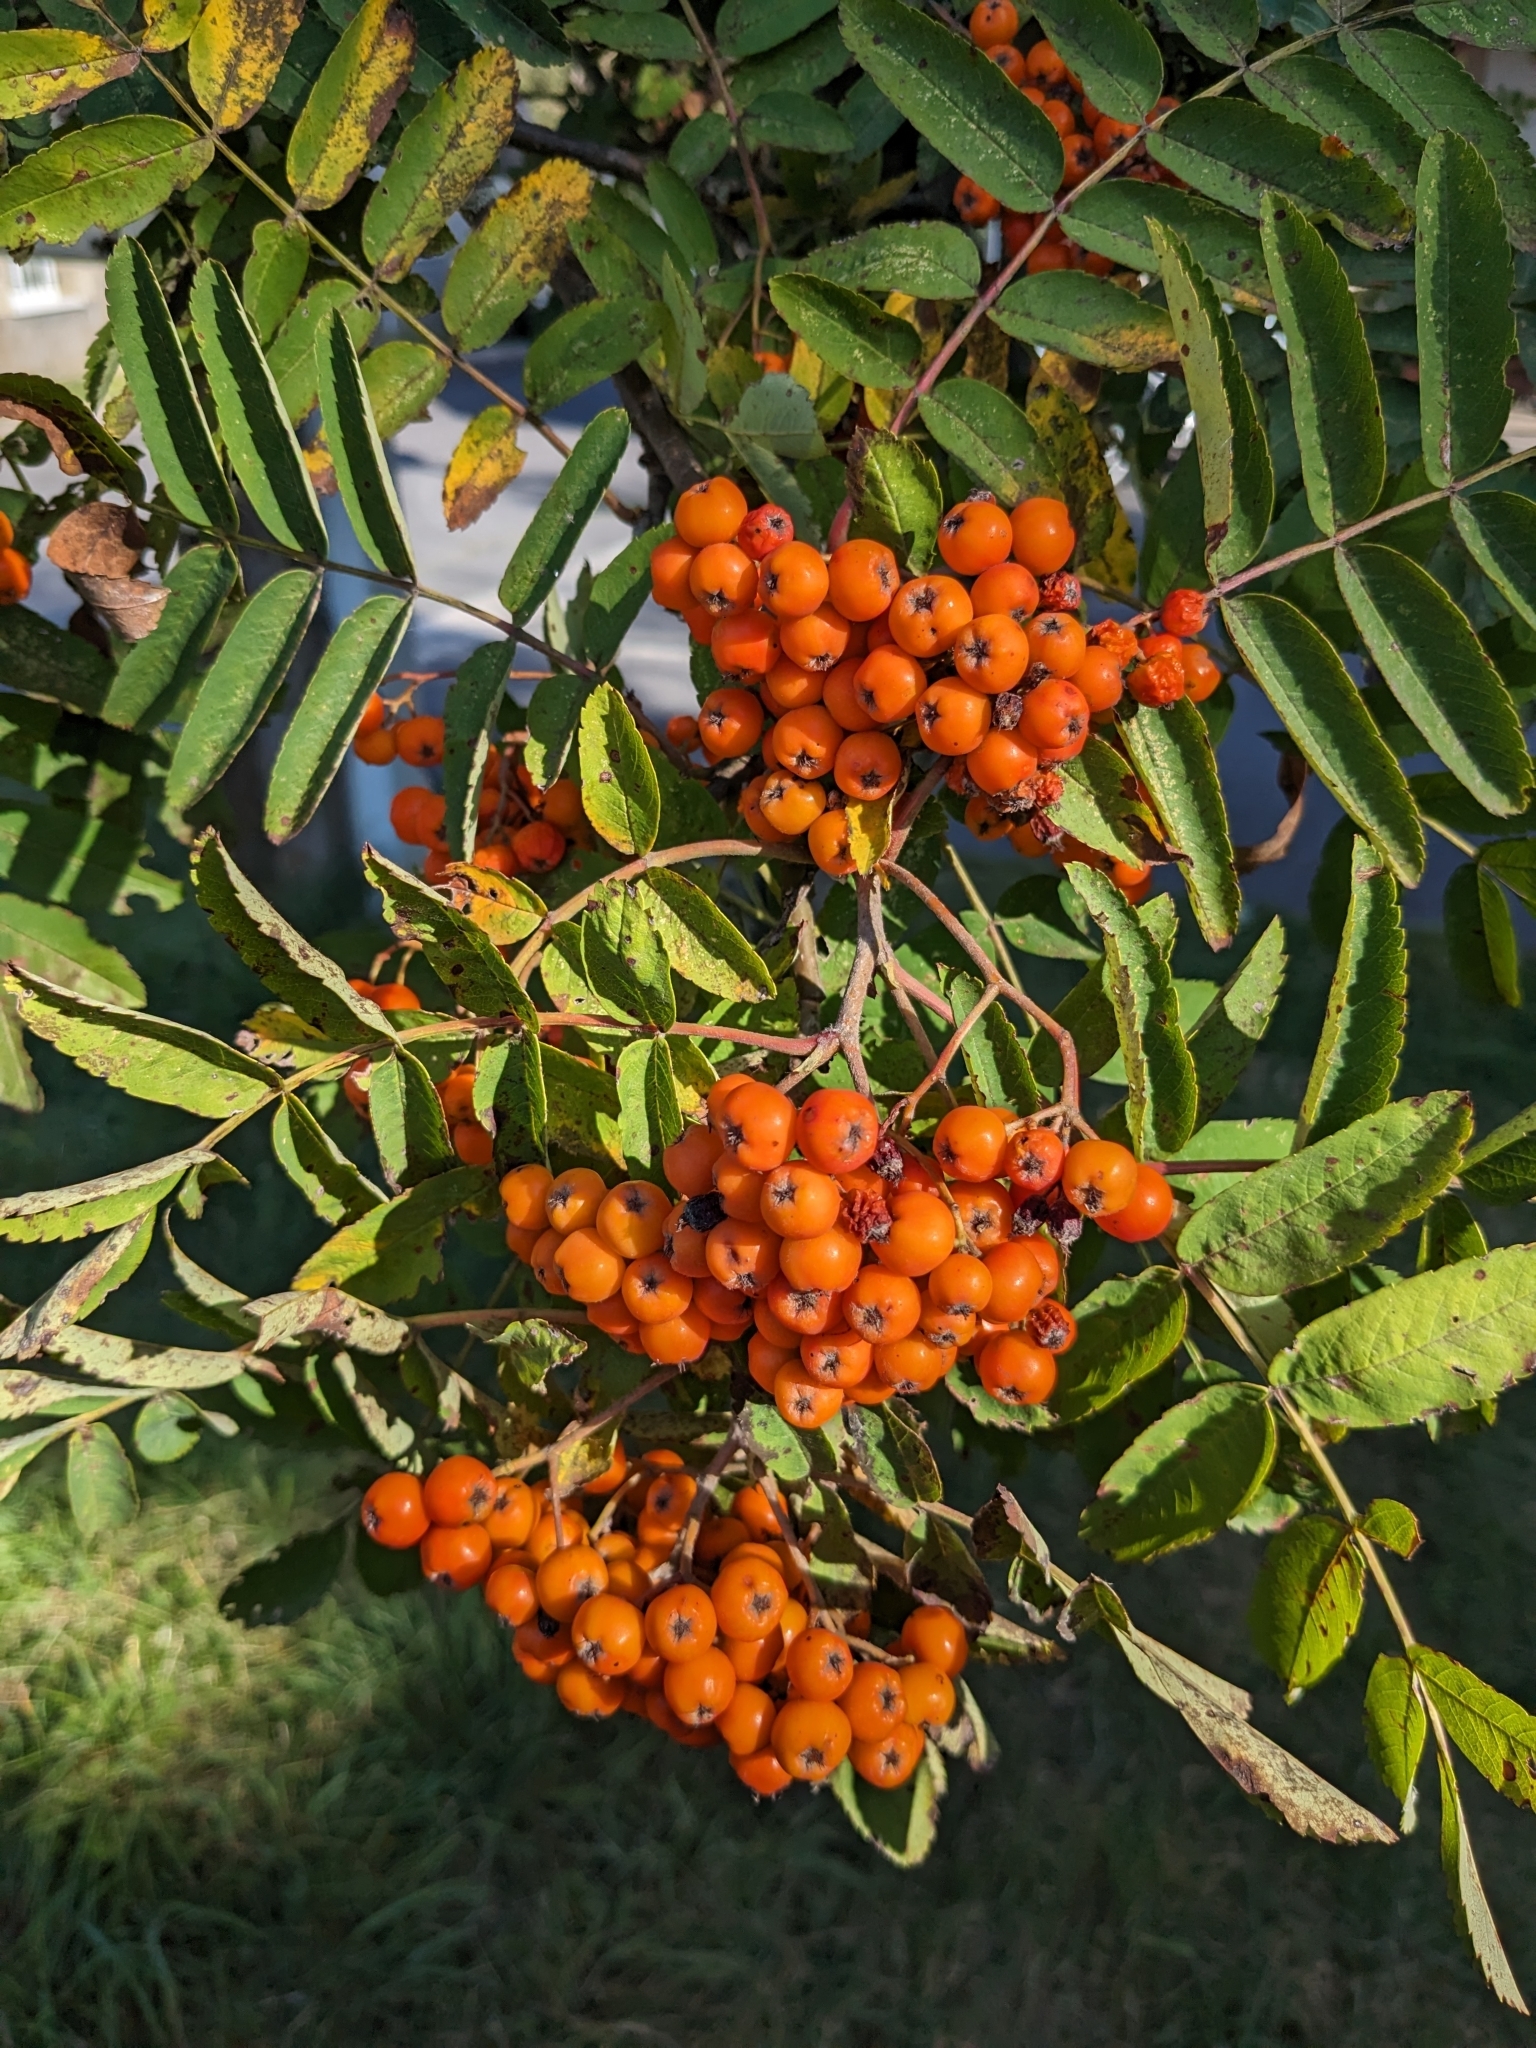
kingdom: Plantae
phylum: Tracheophyta
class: Magnoliopsida
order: Rosales
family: Rosaceae
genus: Sorbus
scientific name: Sorbus aucuparia
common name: Rowan
